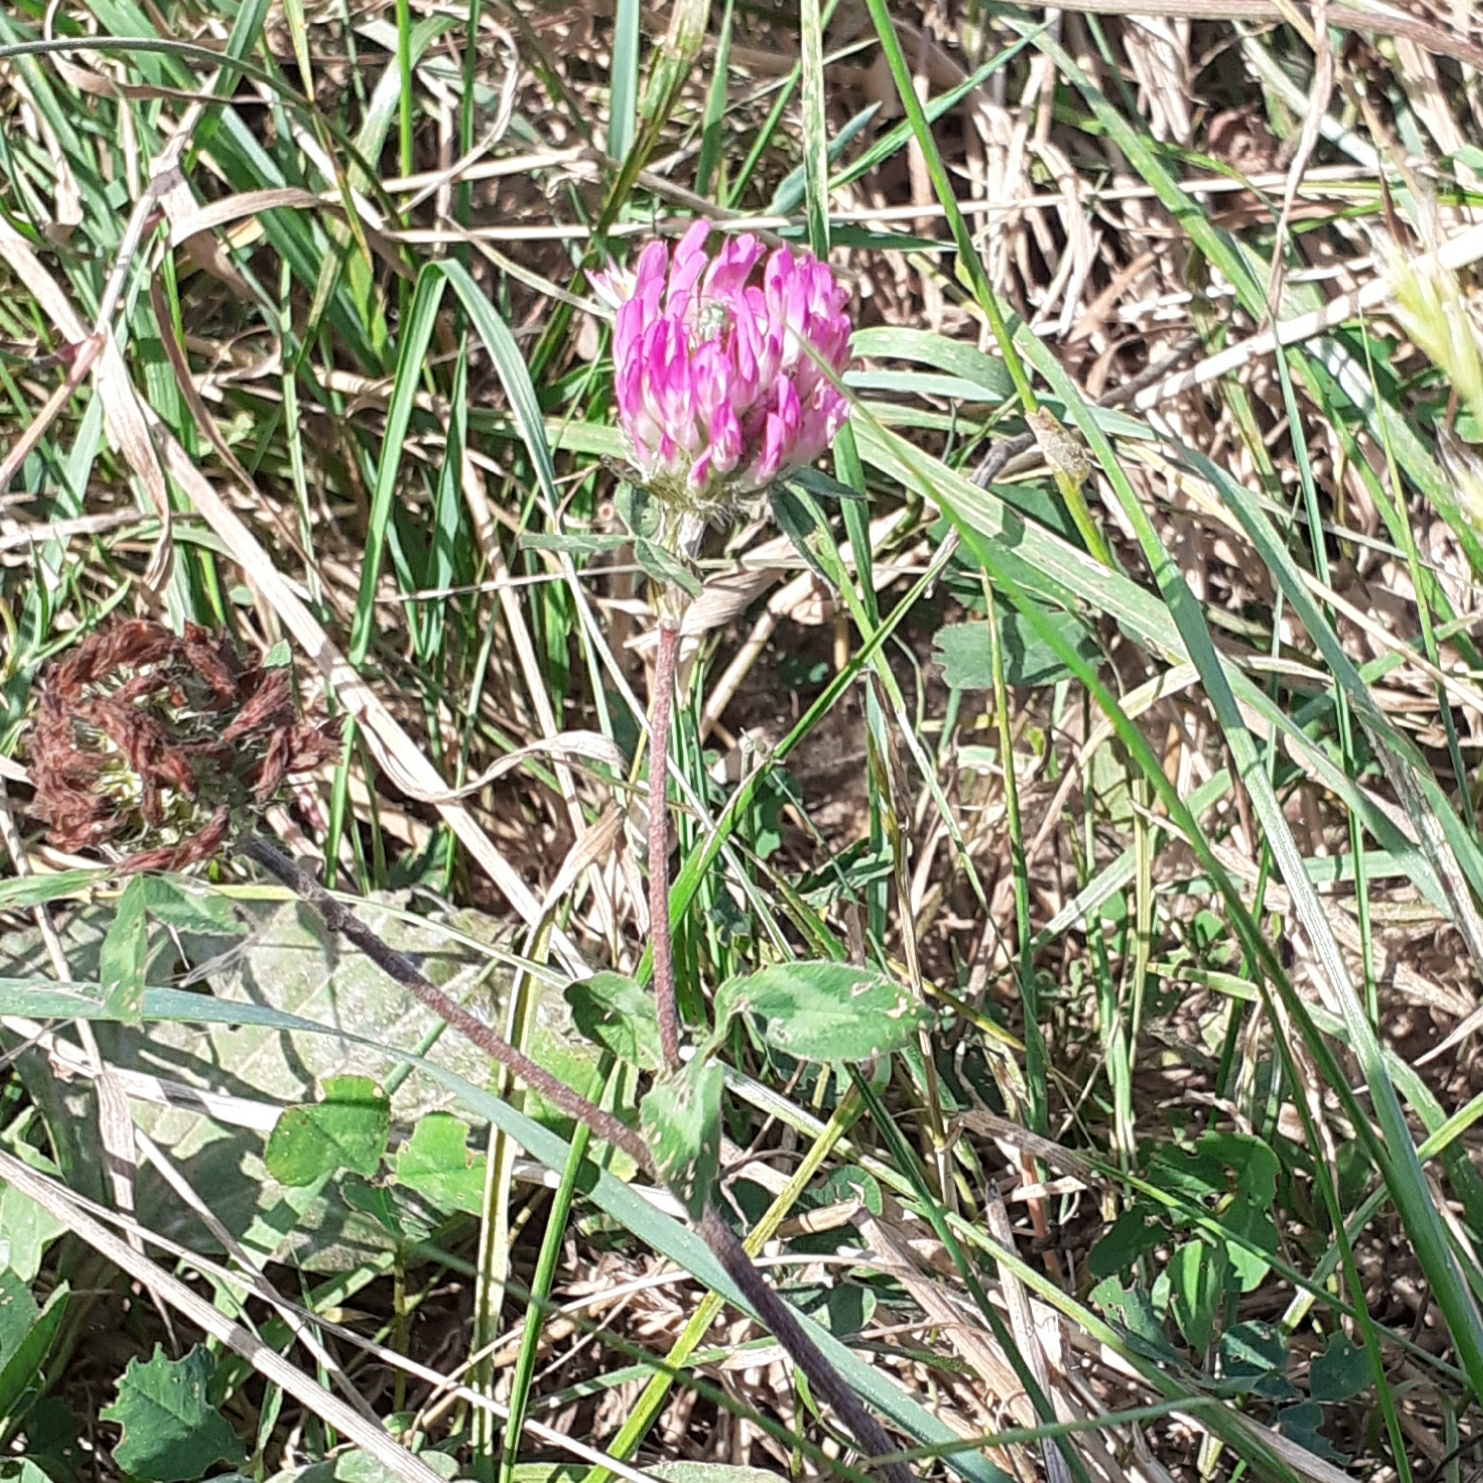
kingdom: Plantae
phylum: Tracheophyta
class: Magnoliopsida
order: Fabales
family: Fabaceae
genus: Trifolium
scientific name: Trifolium pratense
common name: Red clover
